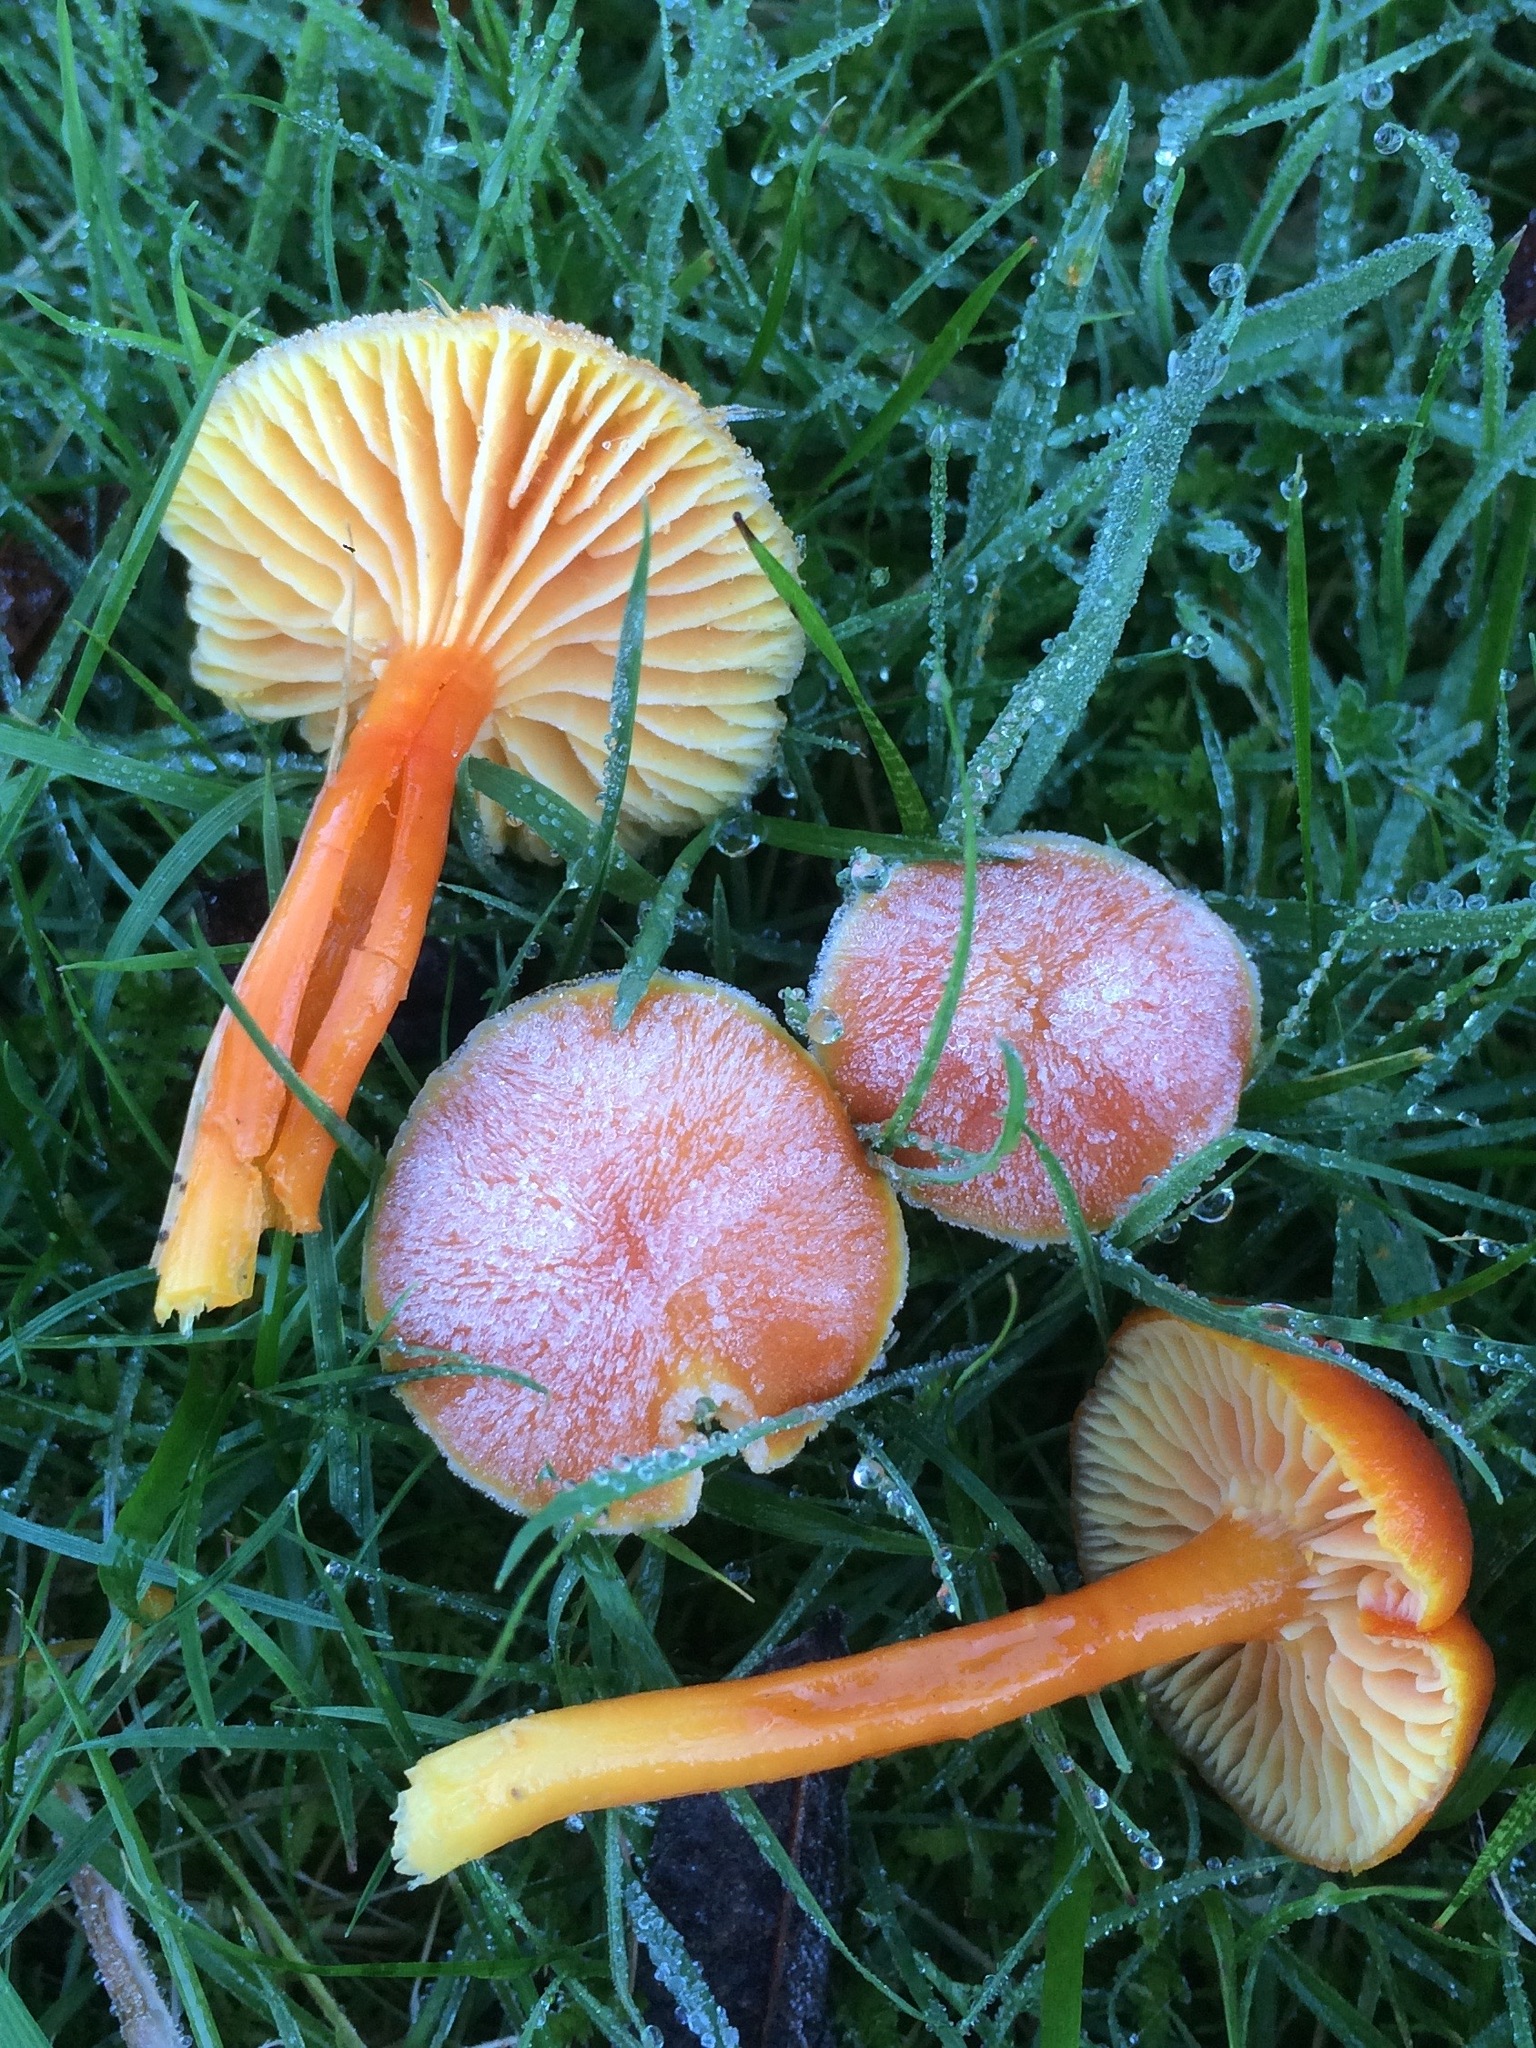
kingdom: Fungi
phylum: Basidiomycota
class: Agaricomycetes
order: Agaricales
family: Hygrophoraceae
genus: Hygrocybe
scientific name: Hygrocybe reidii
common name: Honey waxcap
